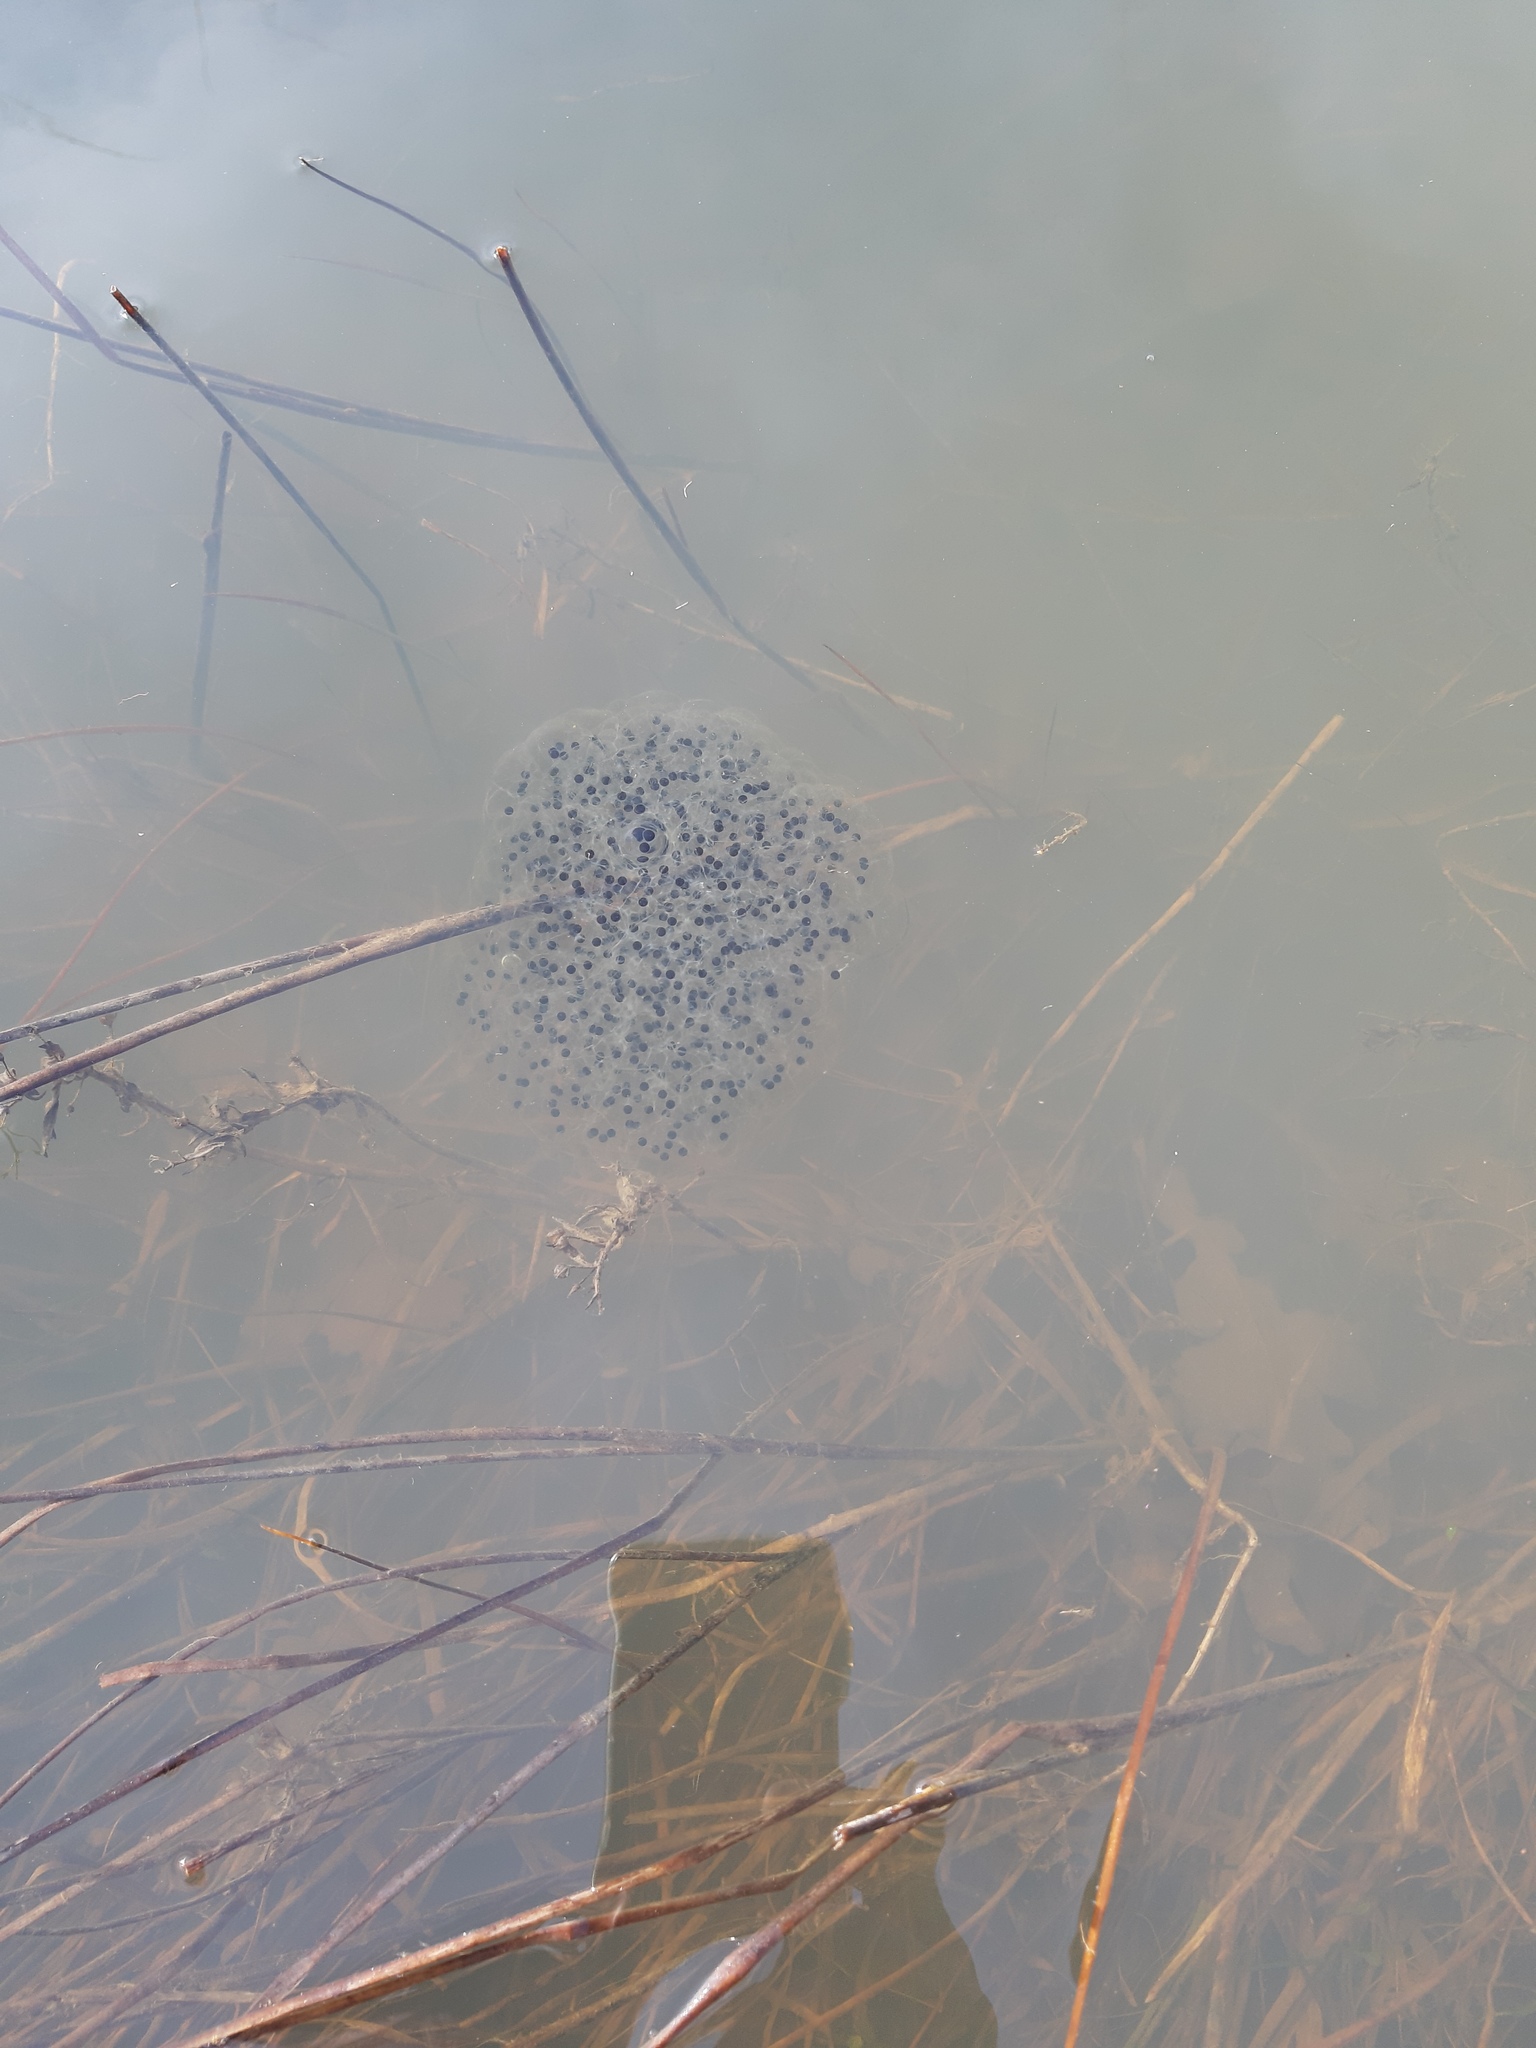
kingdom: Animalia
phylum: Chordata
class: Amphibia
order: Anura
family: Ranidae
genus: Rana
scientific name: Rana dalmatina
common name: Agile frog
